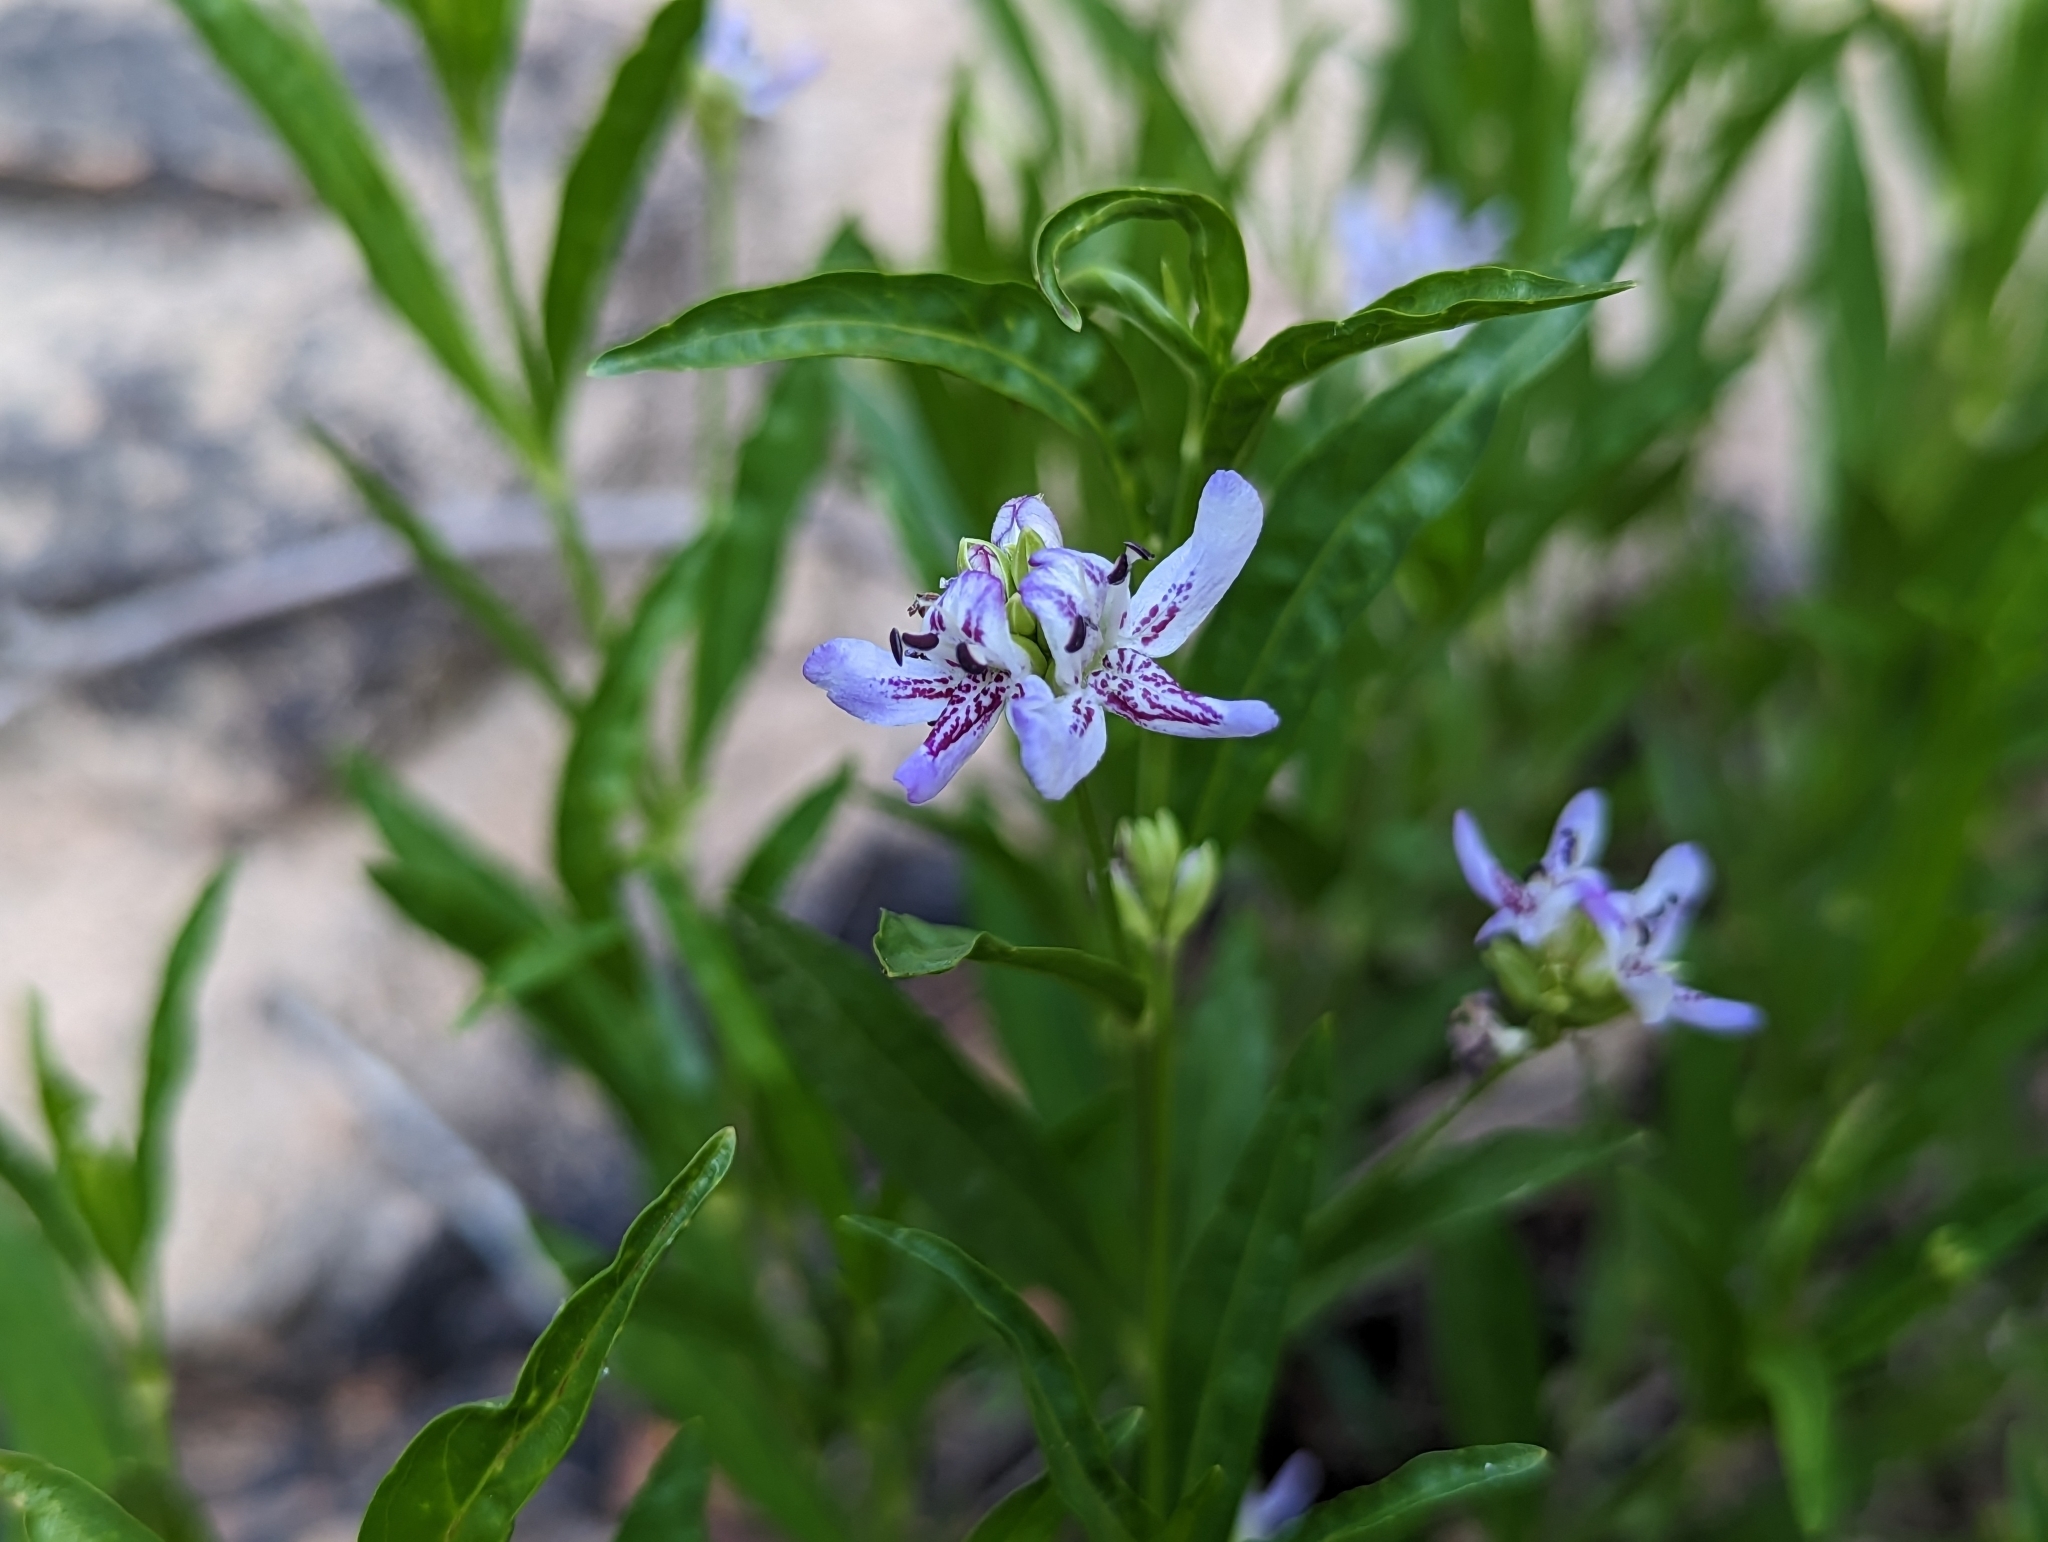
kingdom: Plantae
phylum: Tracheophyta
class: Magnoliopsida
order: Lamiales
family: Acanthaceae
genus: Dianthera
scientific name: Dianthera americana
